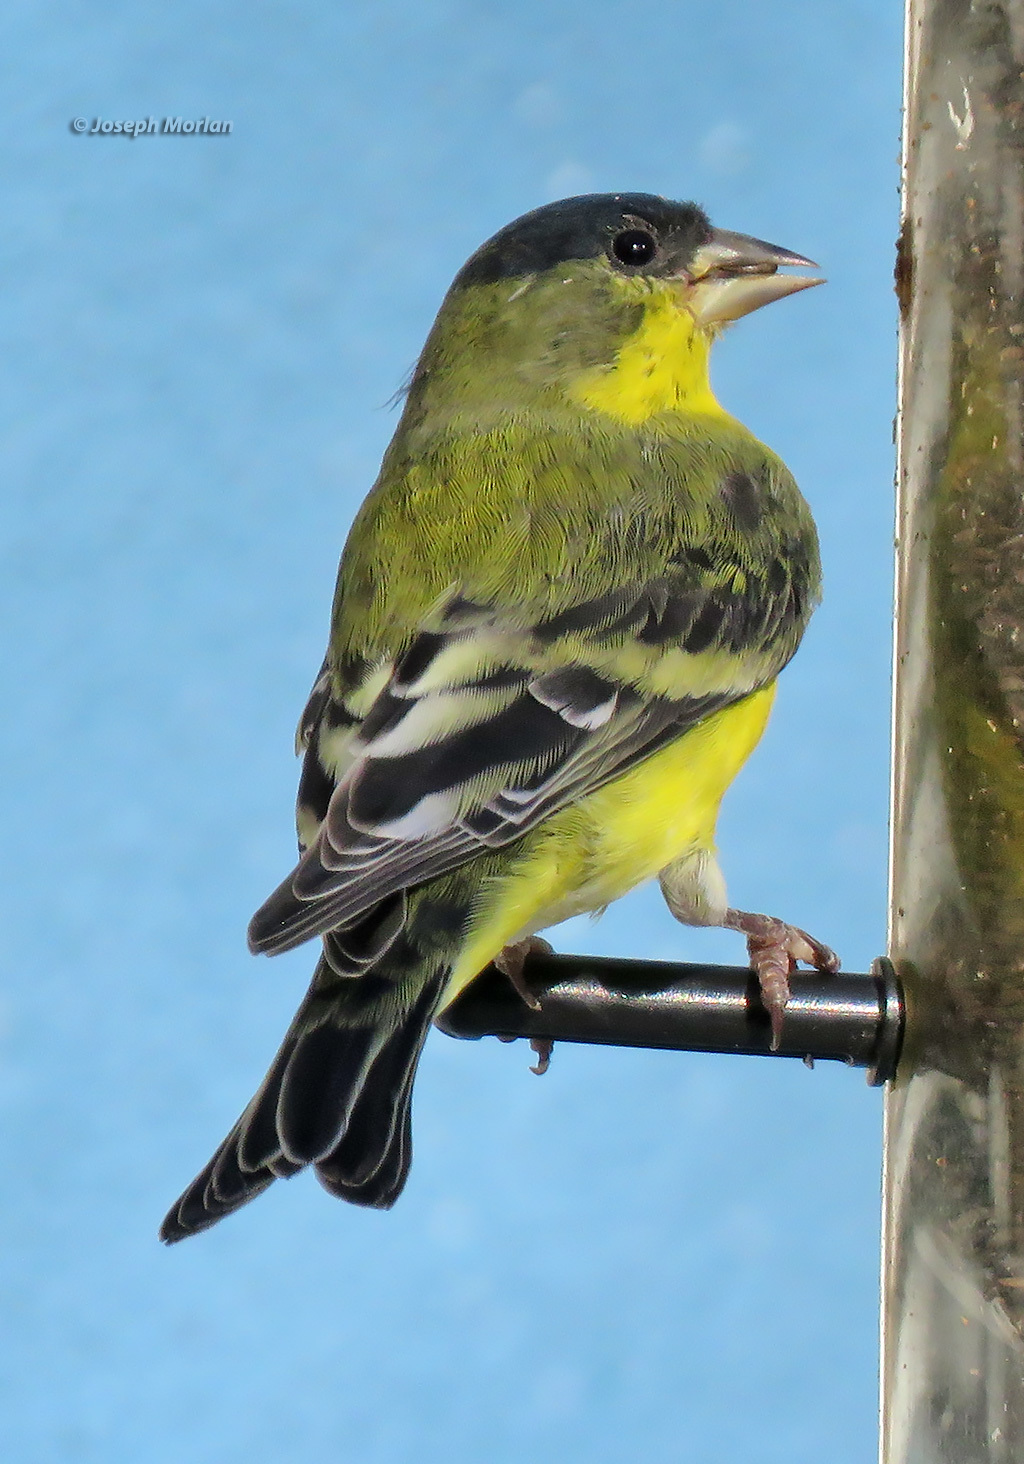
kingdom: Animalia
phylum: Chordata
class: Aves
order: Passeriformes
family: Fringillidae
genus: Spinus
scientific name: Spinus psaltria
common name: Lesser goldfinch
